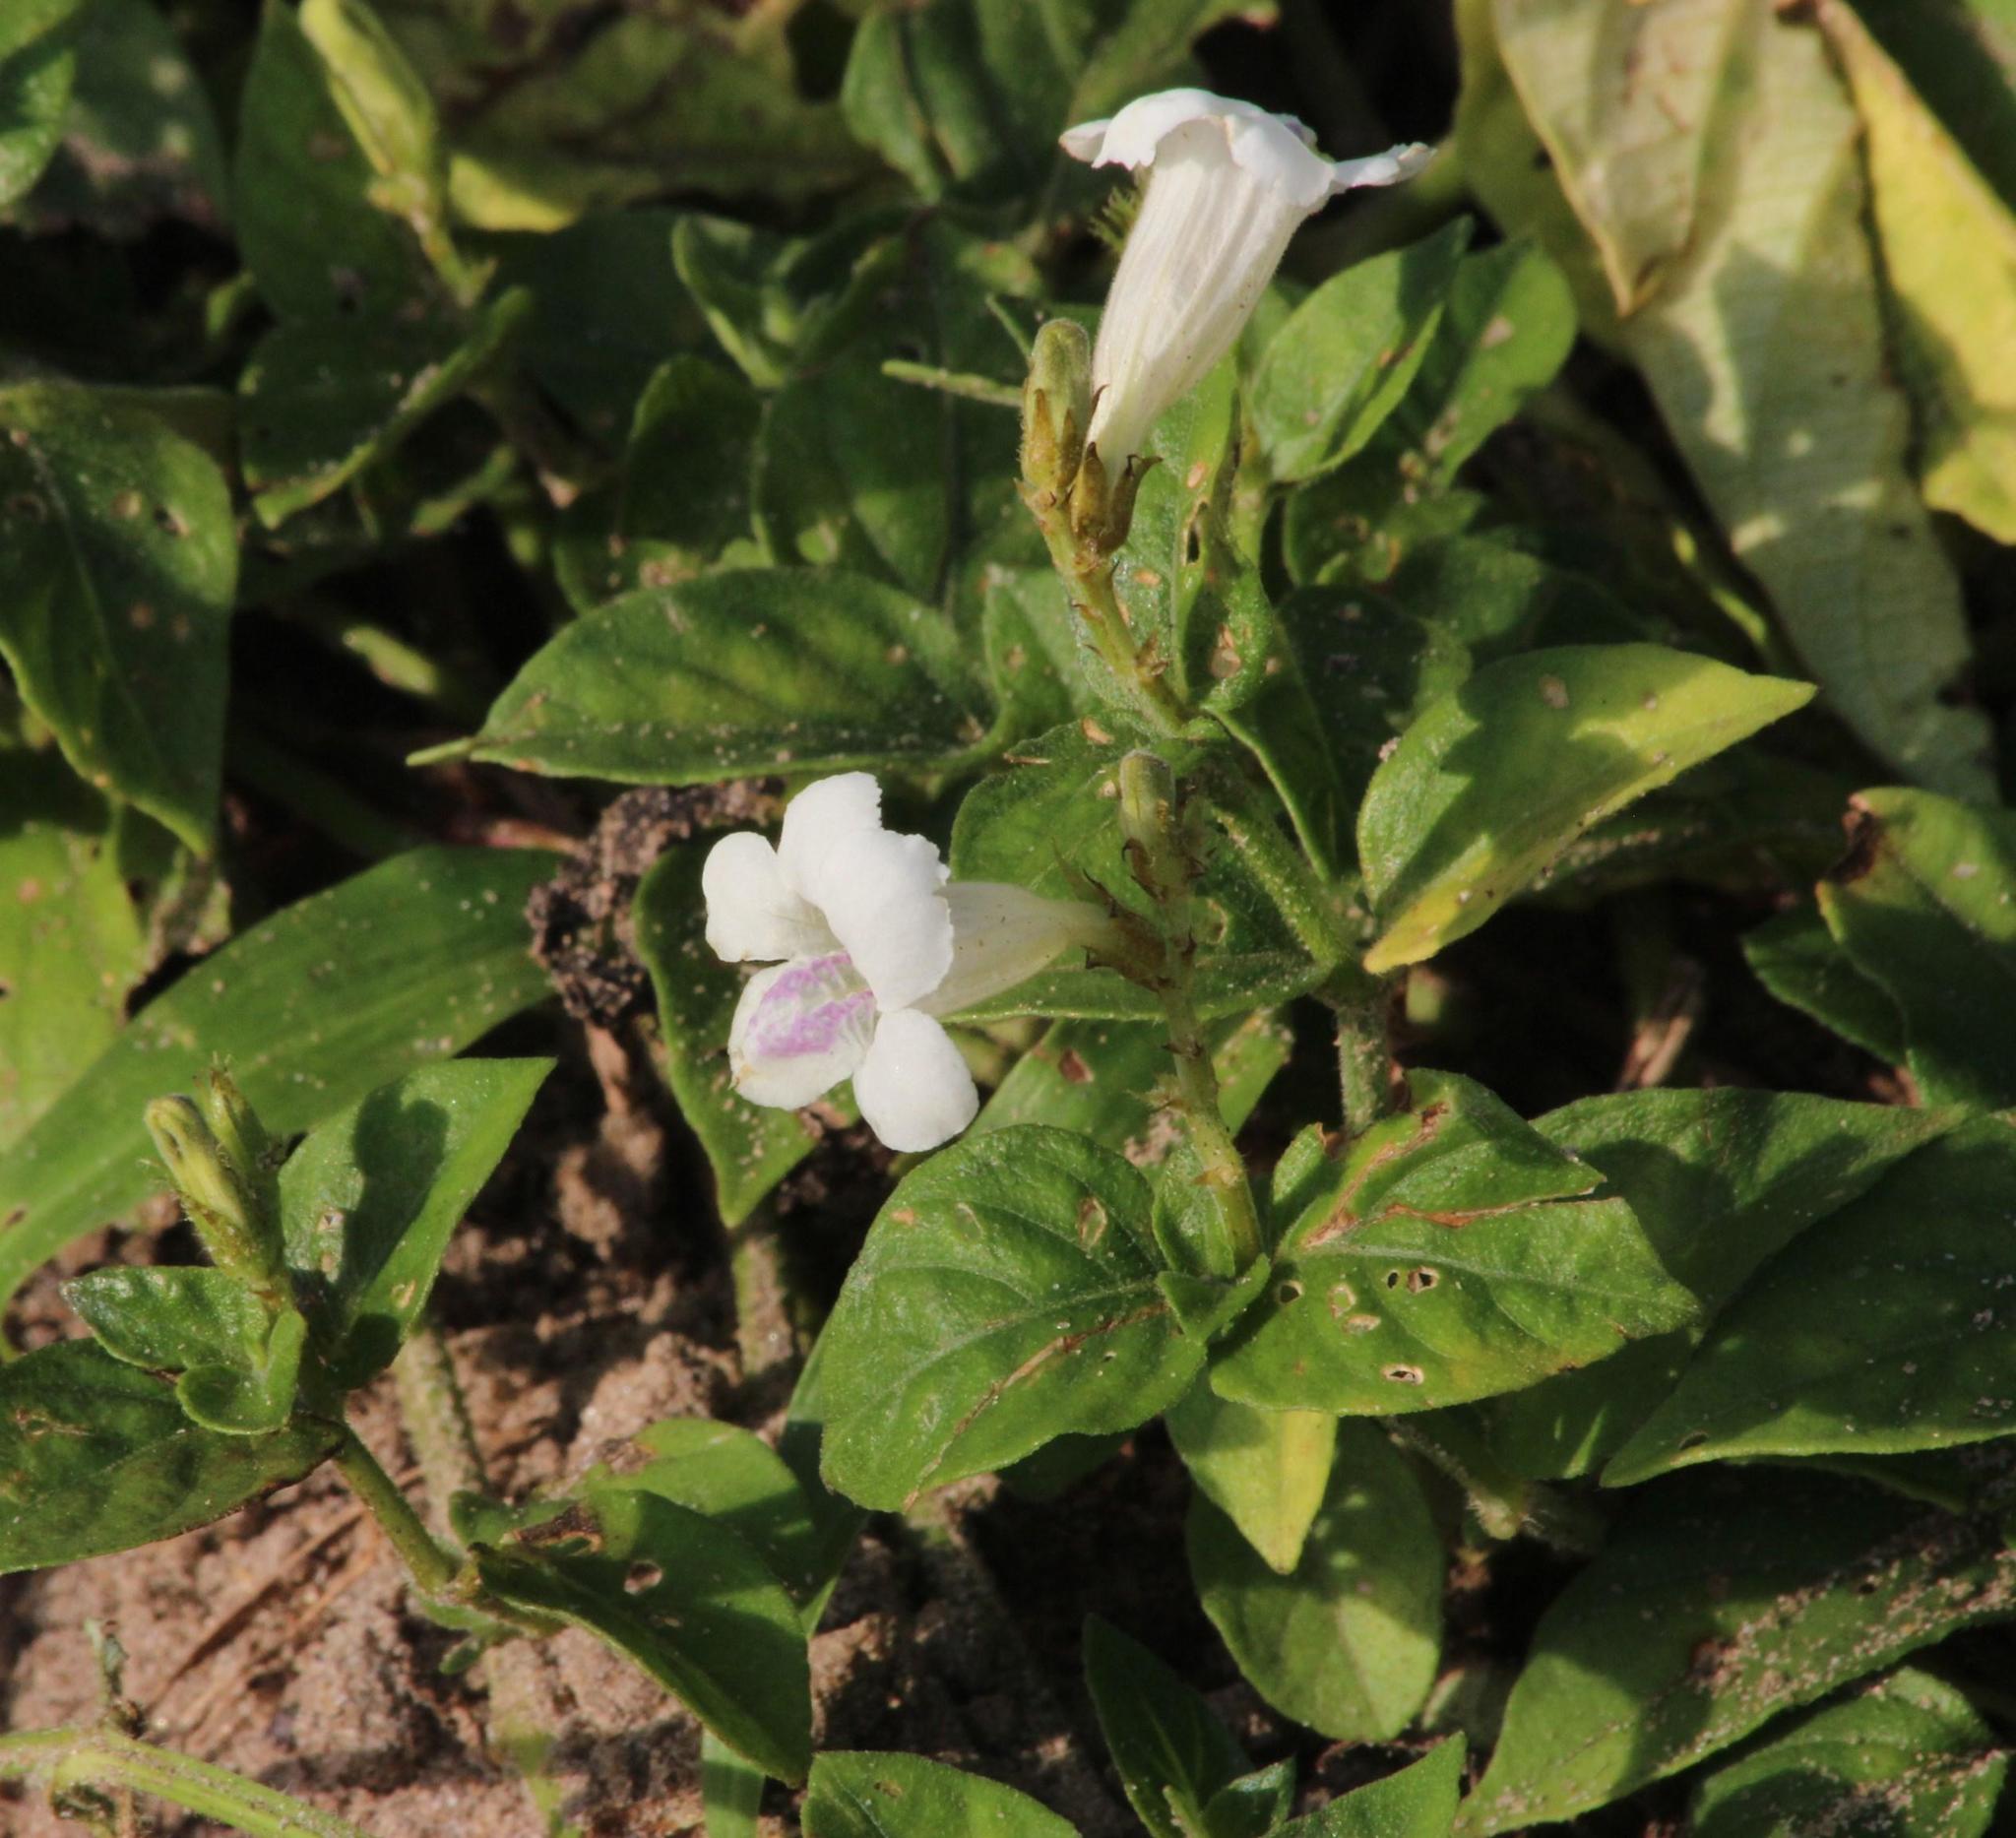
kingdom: Plantae
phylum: Tracheophyta
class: Magnoliopsida
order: Lamiales
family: Acanthaceae
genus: Asystasia
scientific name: Asystasia intrusa
